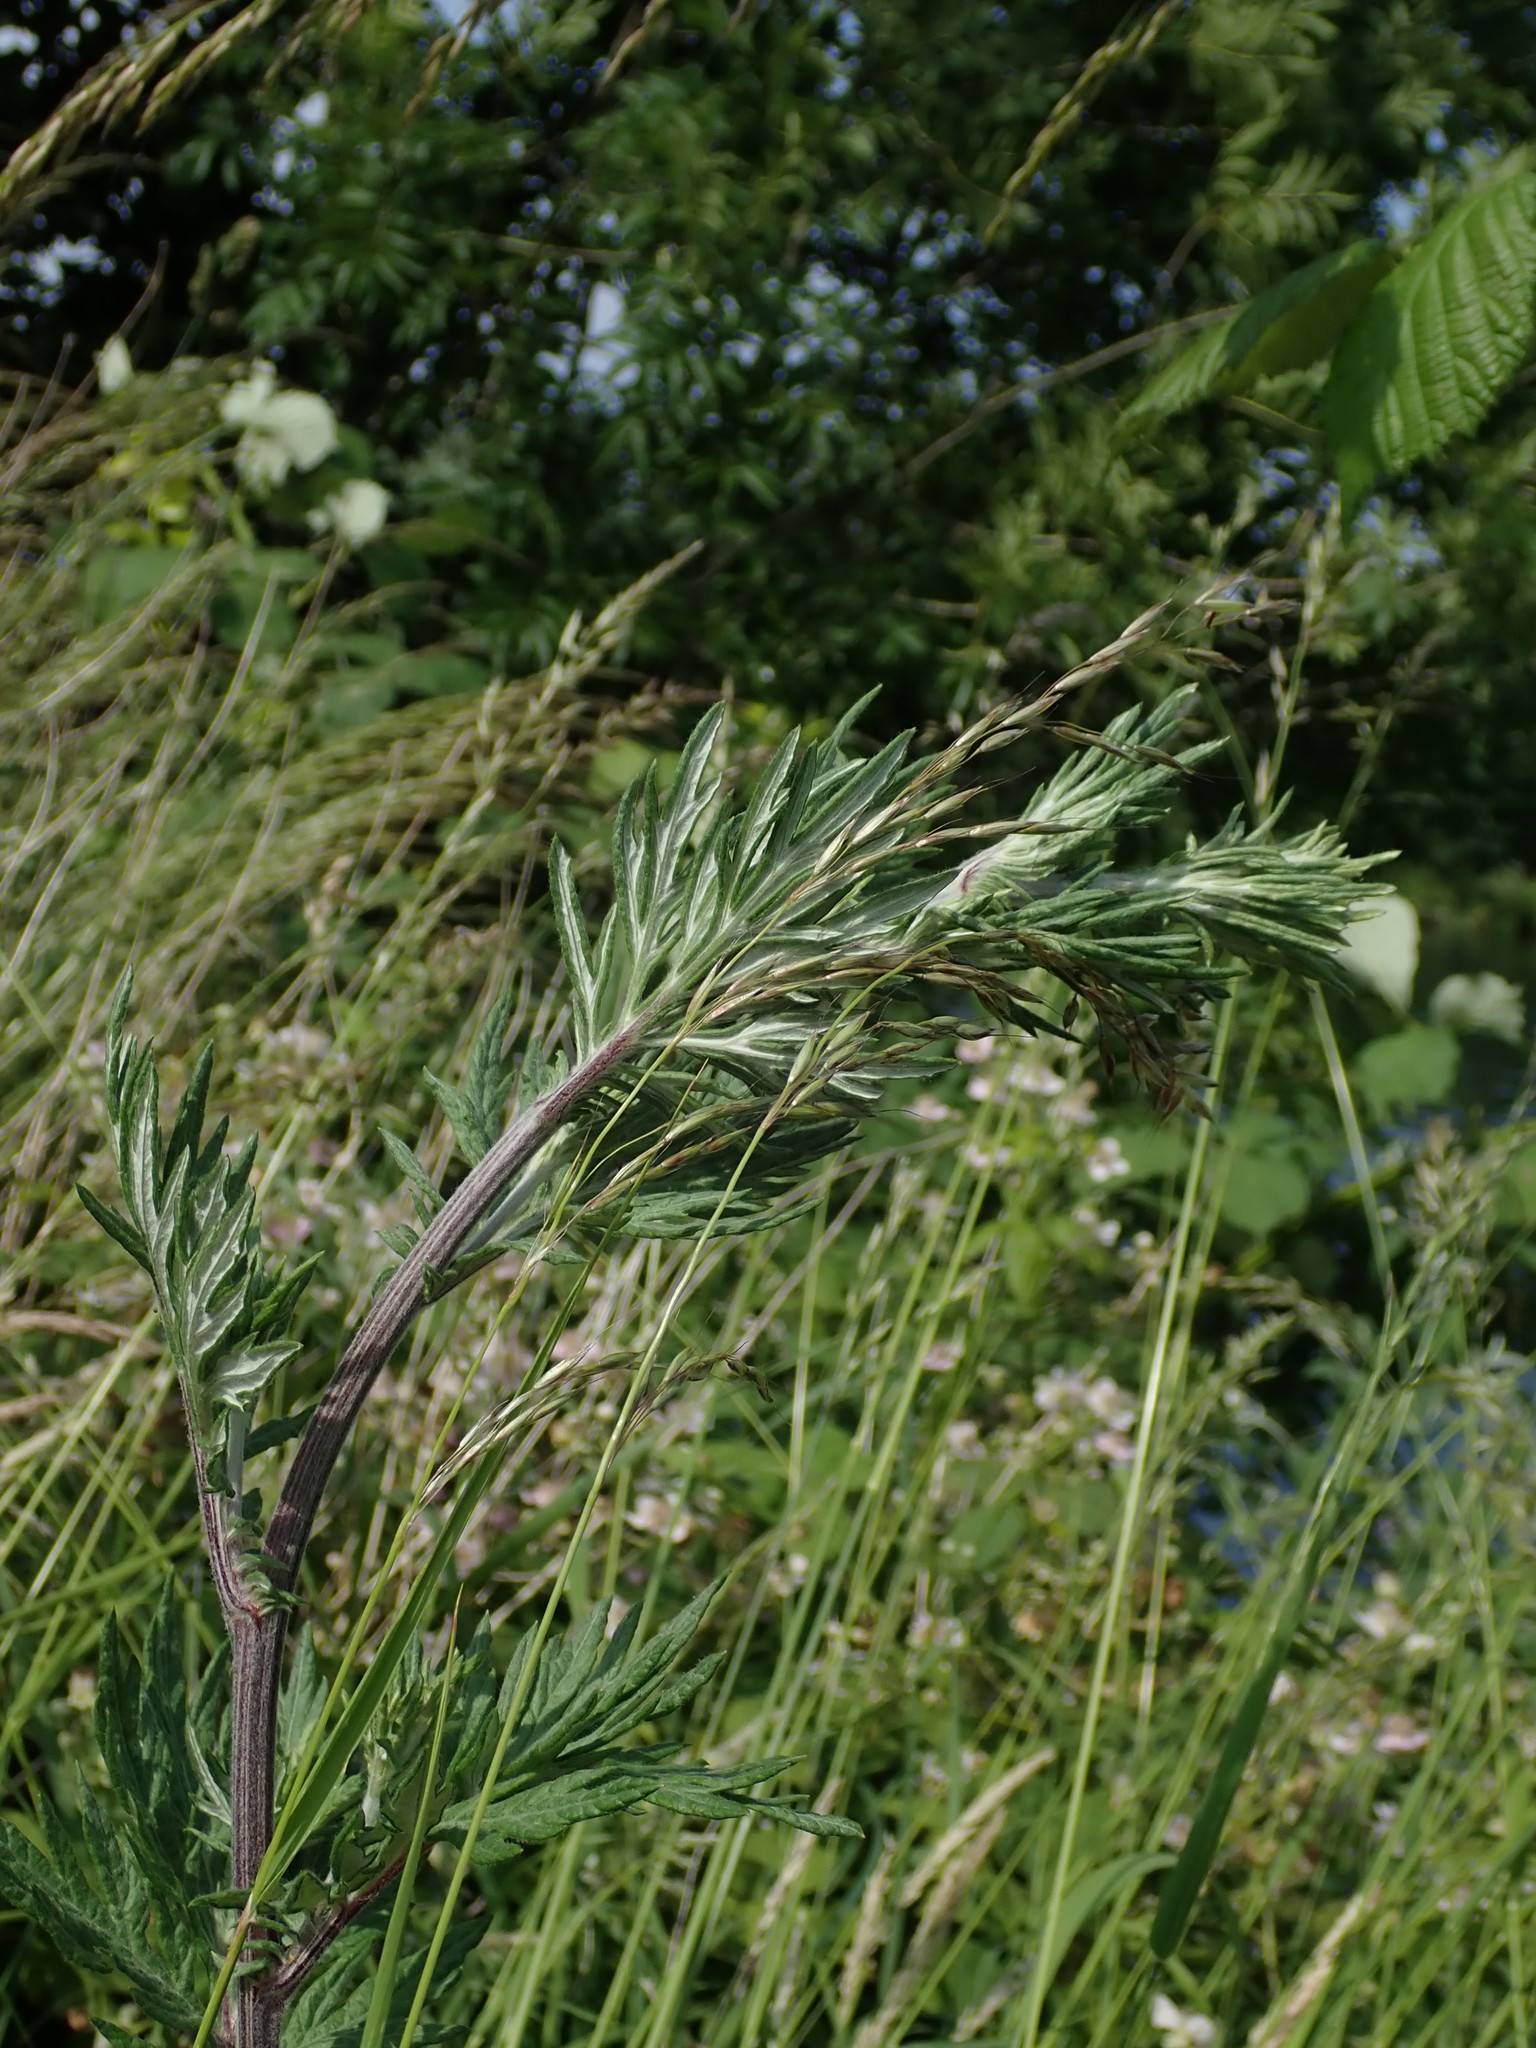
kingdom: Plantae
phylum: Tracheophyta
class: Magnoliopsida
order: Asterales
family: Asteraceae
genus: Artemisia
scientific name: Artemisia vulgaris
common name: Mugwort
